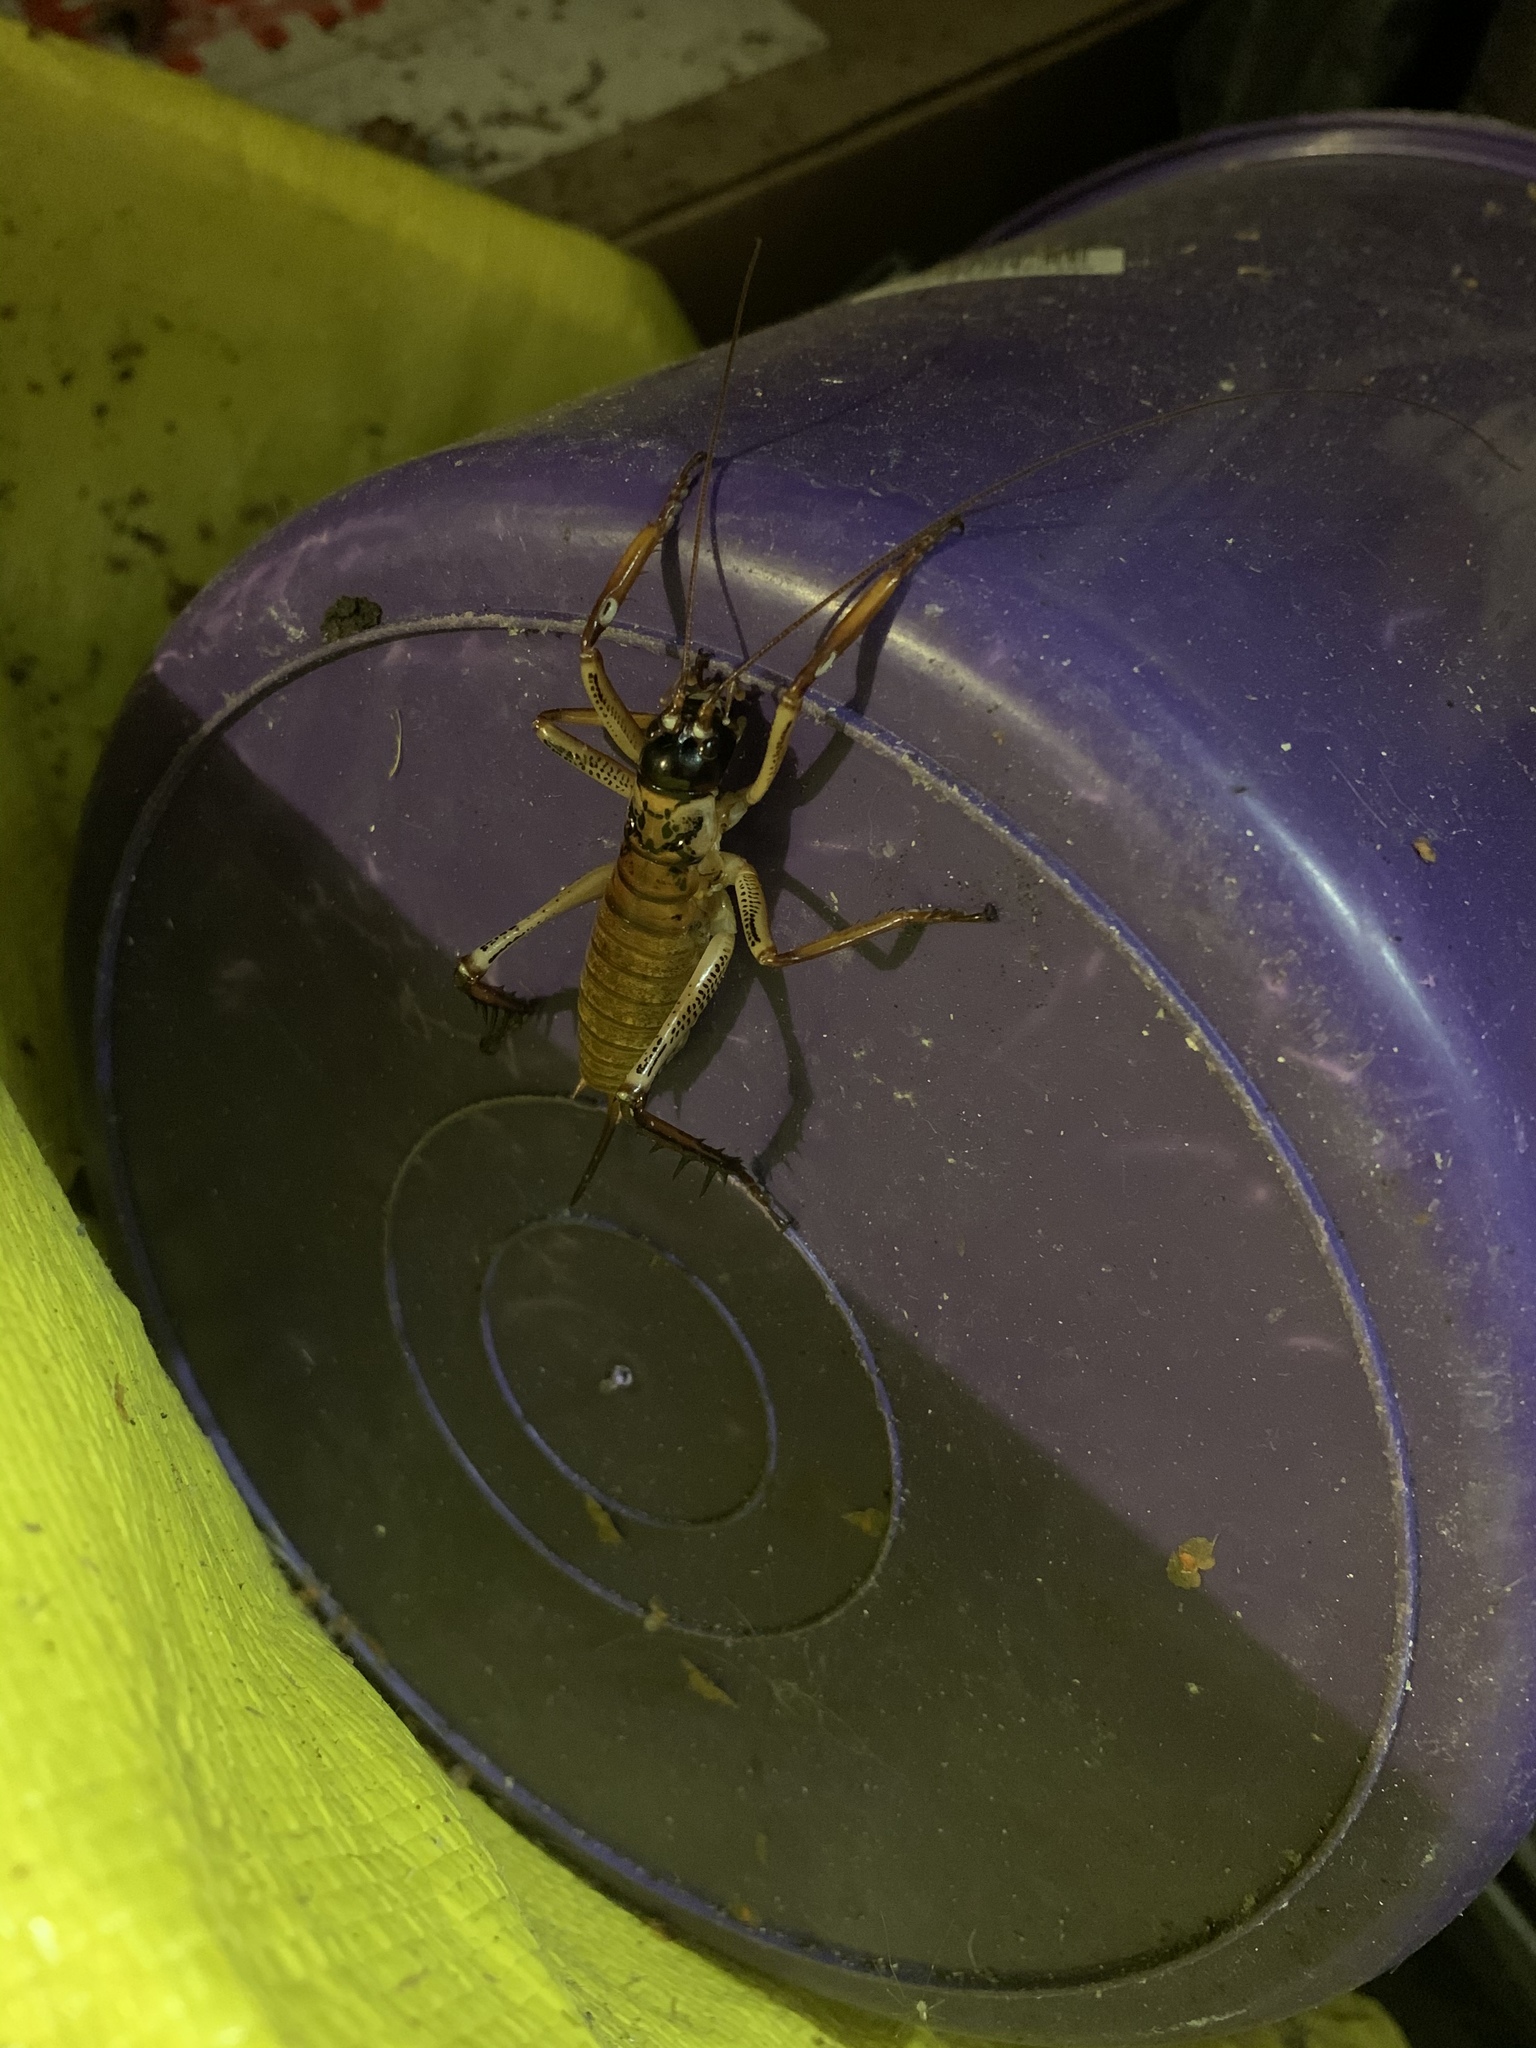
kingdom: Animalia
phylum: Arthropoda
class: Insecta
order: Orthoptera
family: Anostostomatidae
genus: Hemideina
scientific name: Hemideina thoracica
